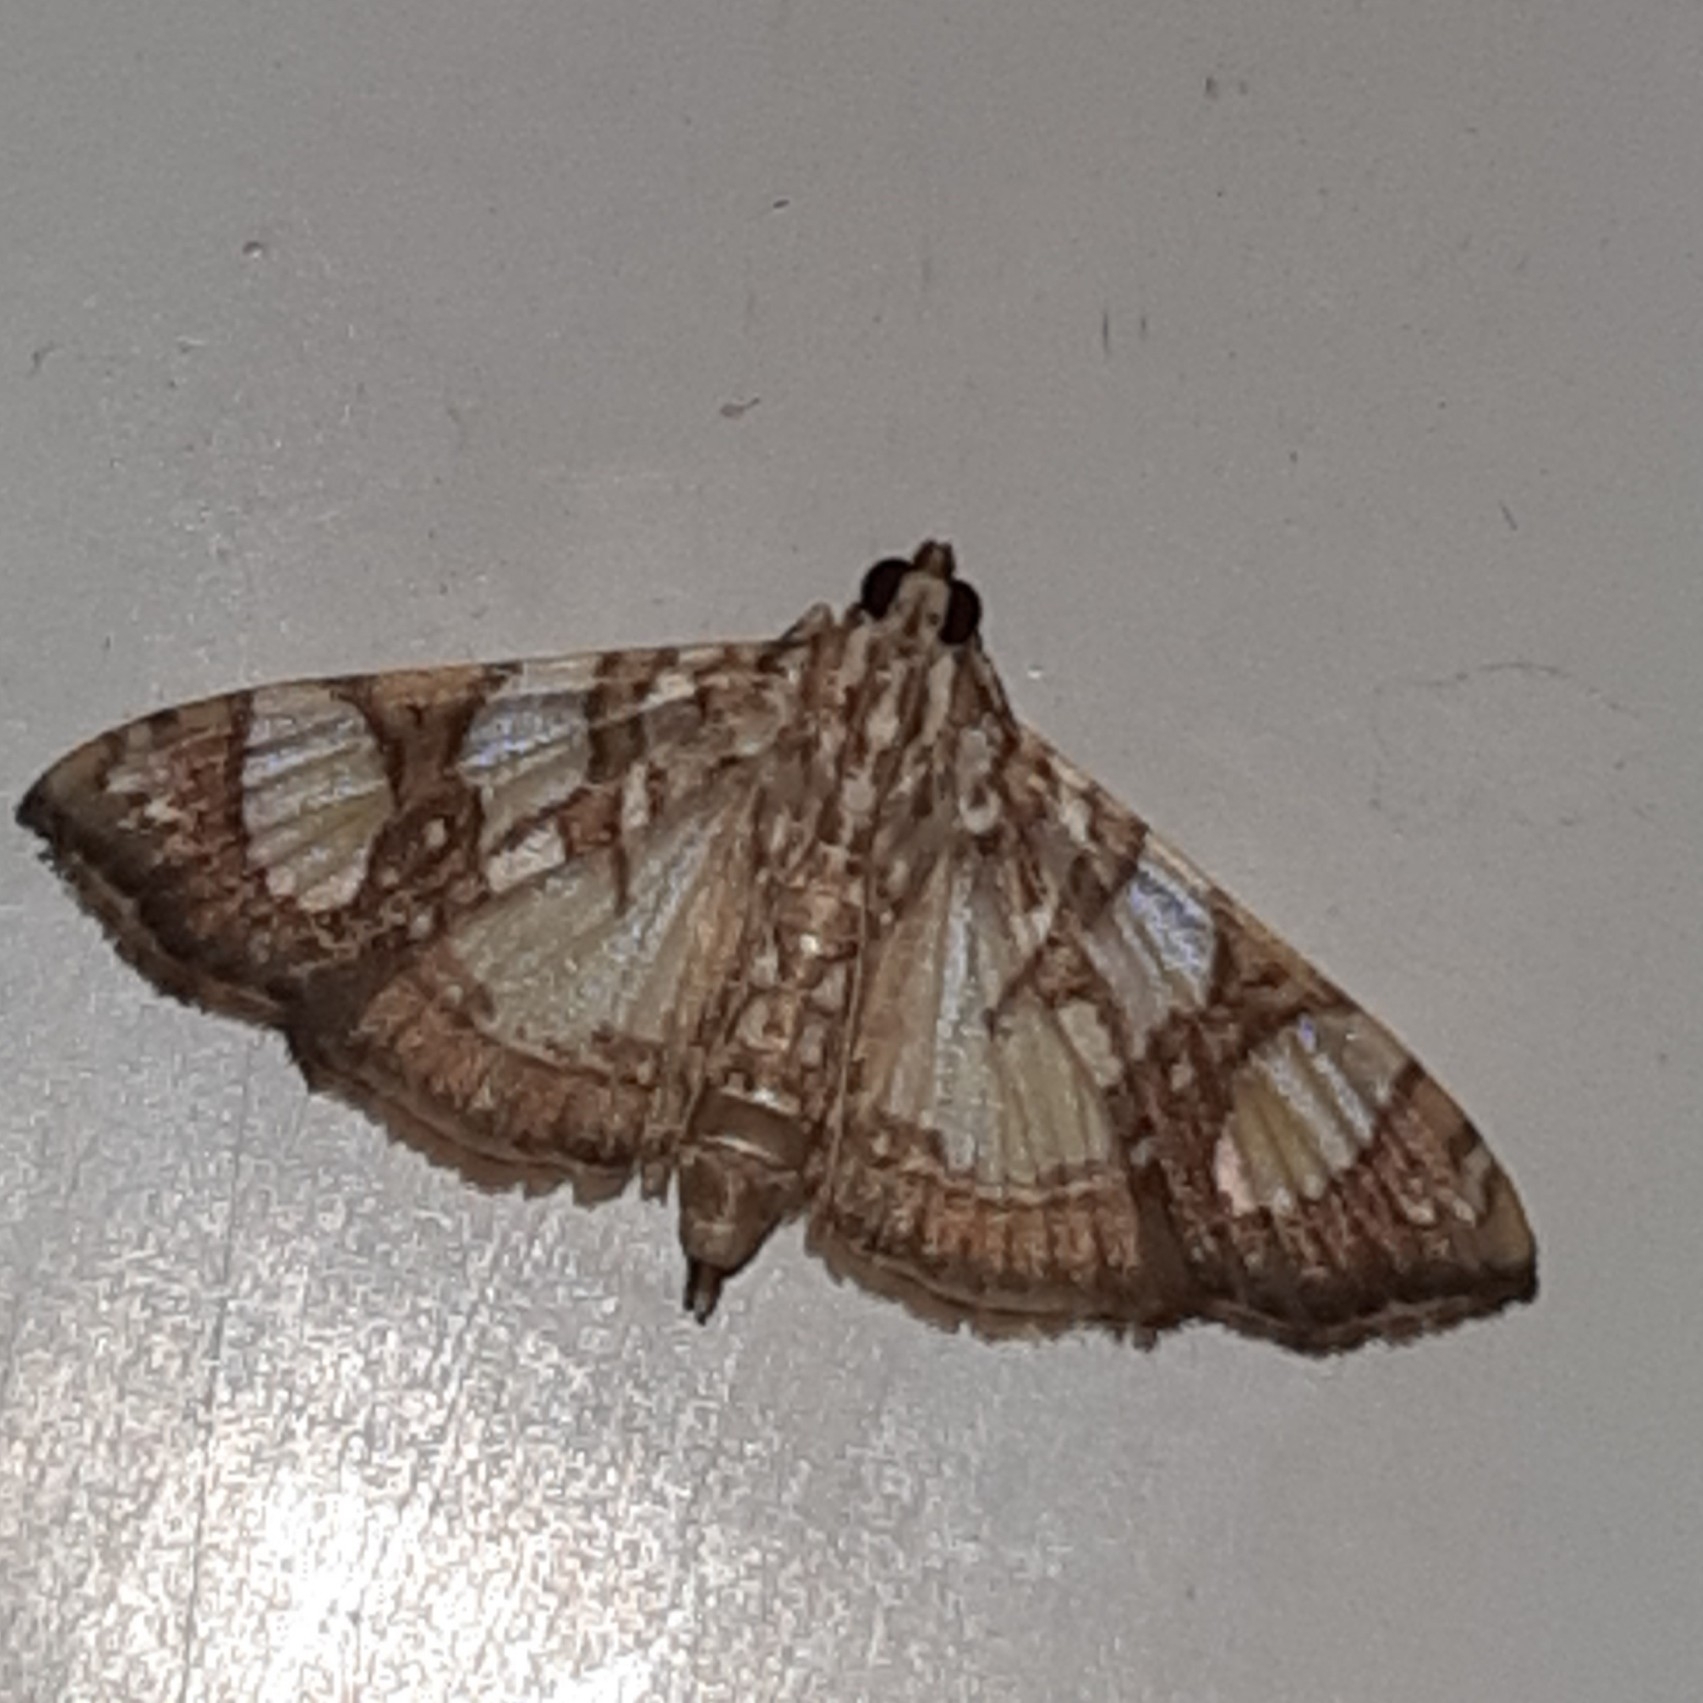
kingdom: Animalia
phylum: Arthropoda
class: Insecta
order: Lepidoptera
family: Crambidae
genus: Glyphodes
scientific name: Glyphodes sibillalis
